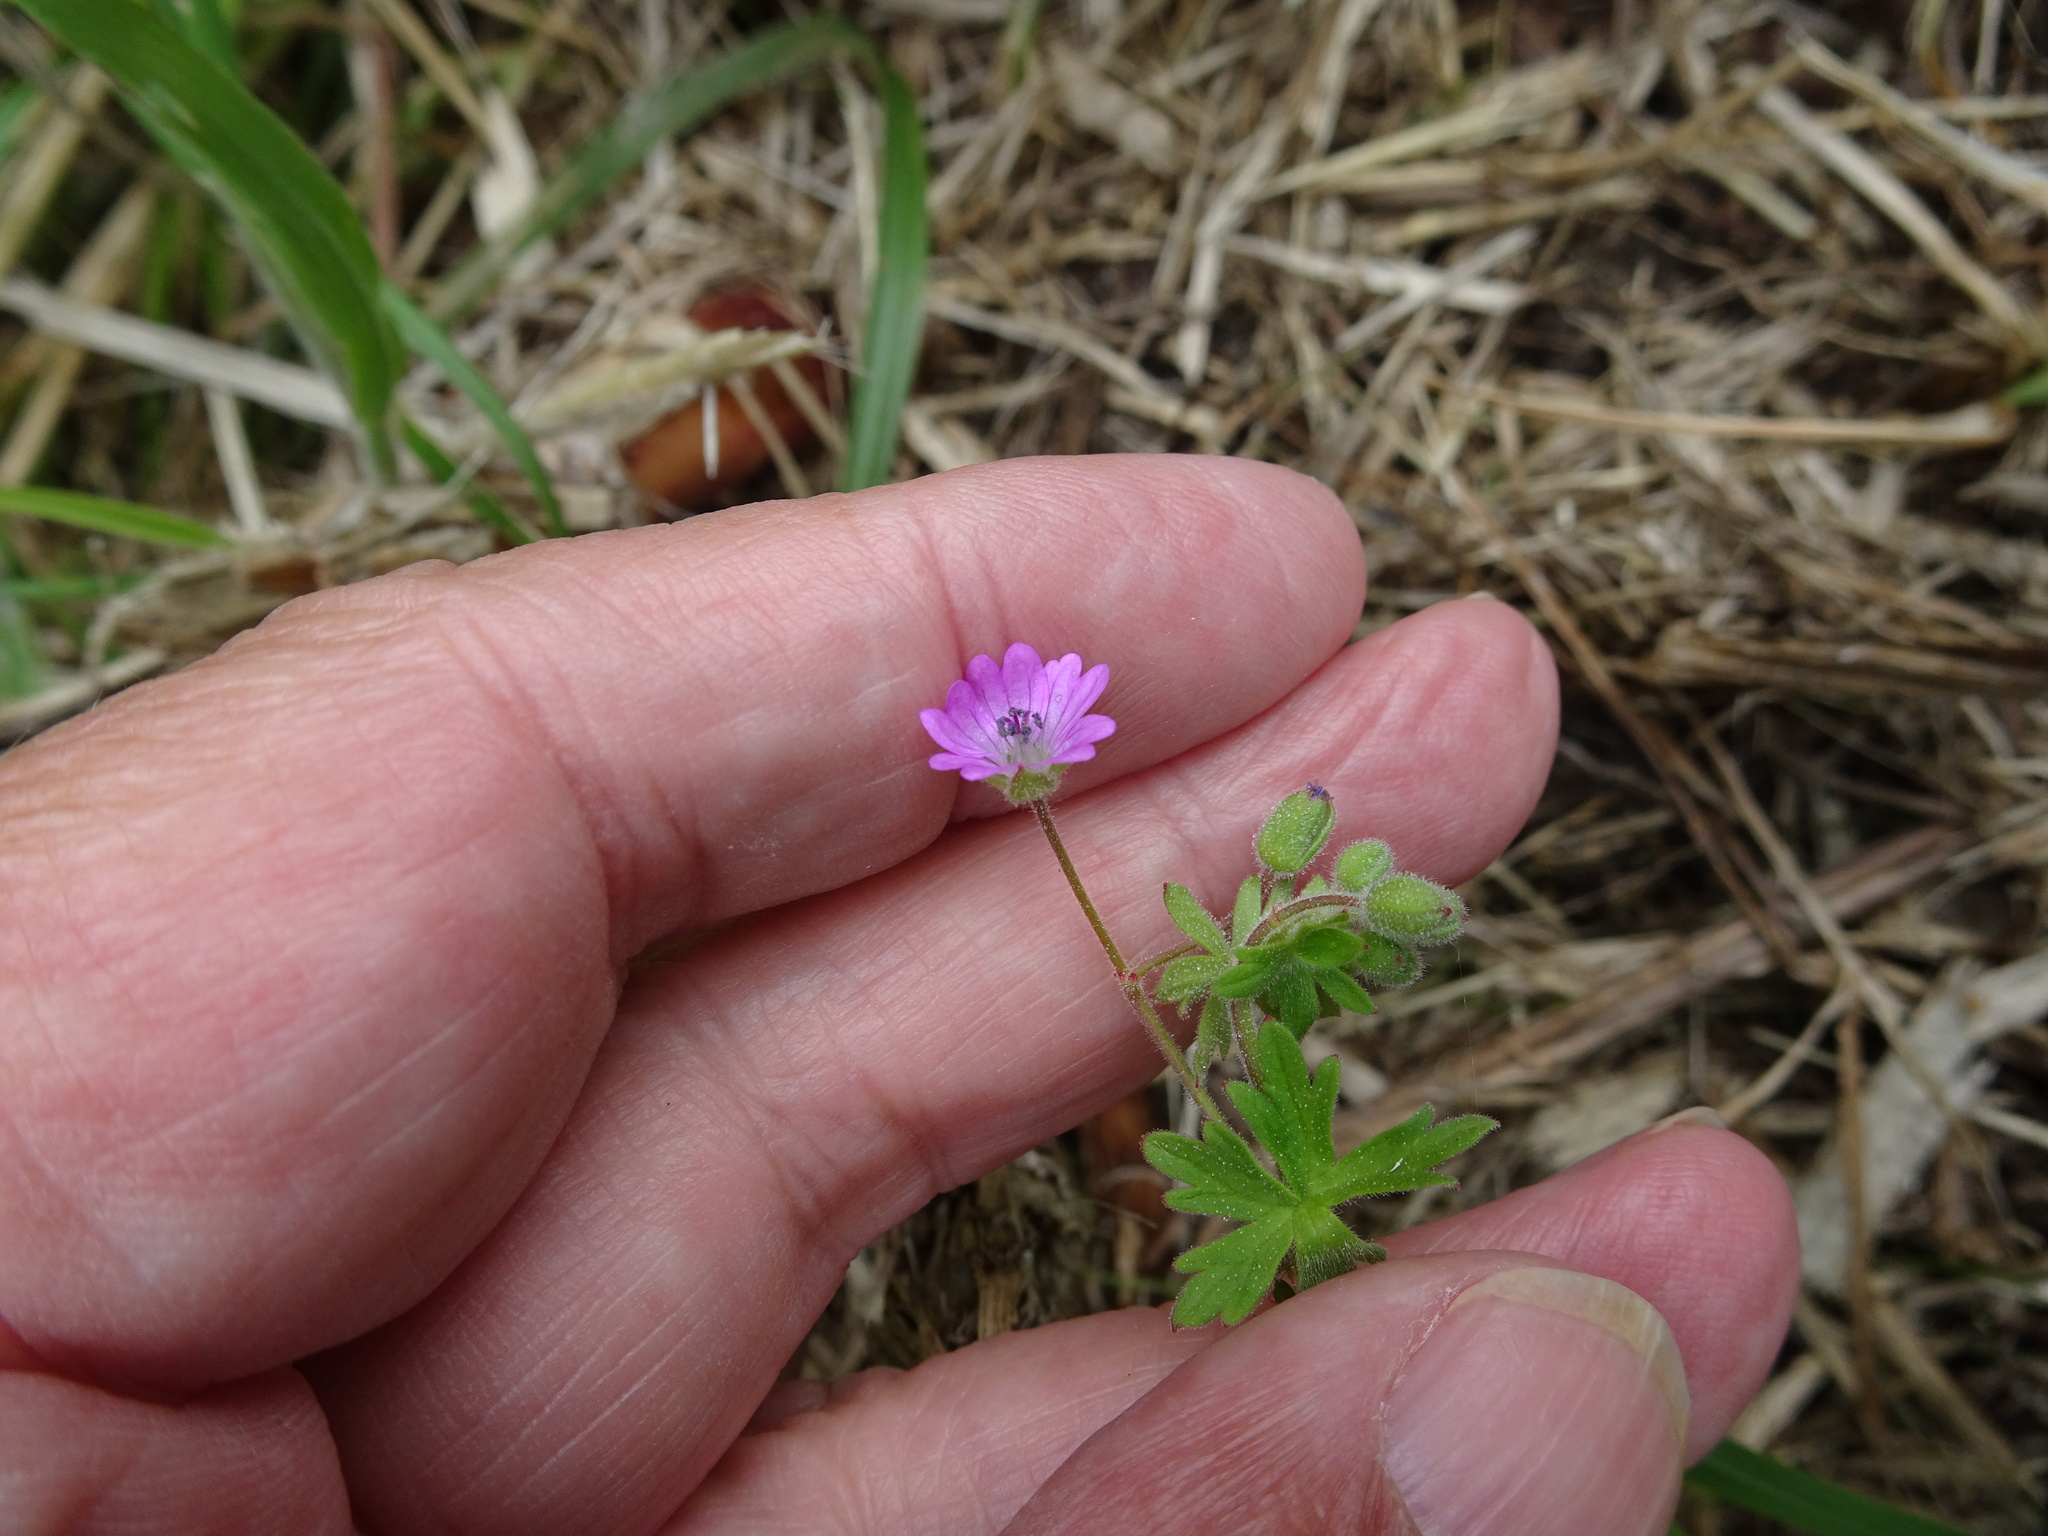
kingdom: Plantae
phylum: Tracheophyta
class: Magnoliopsida
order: Geraniales
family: Geraniaceae
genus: Geranium
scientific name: Geranium molle
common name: Dove's-foot crane's-bill
